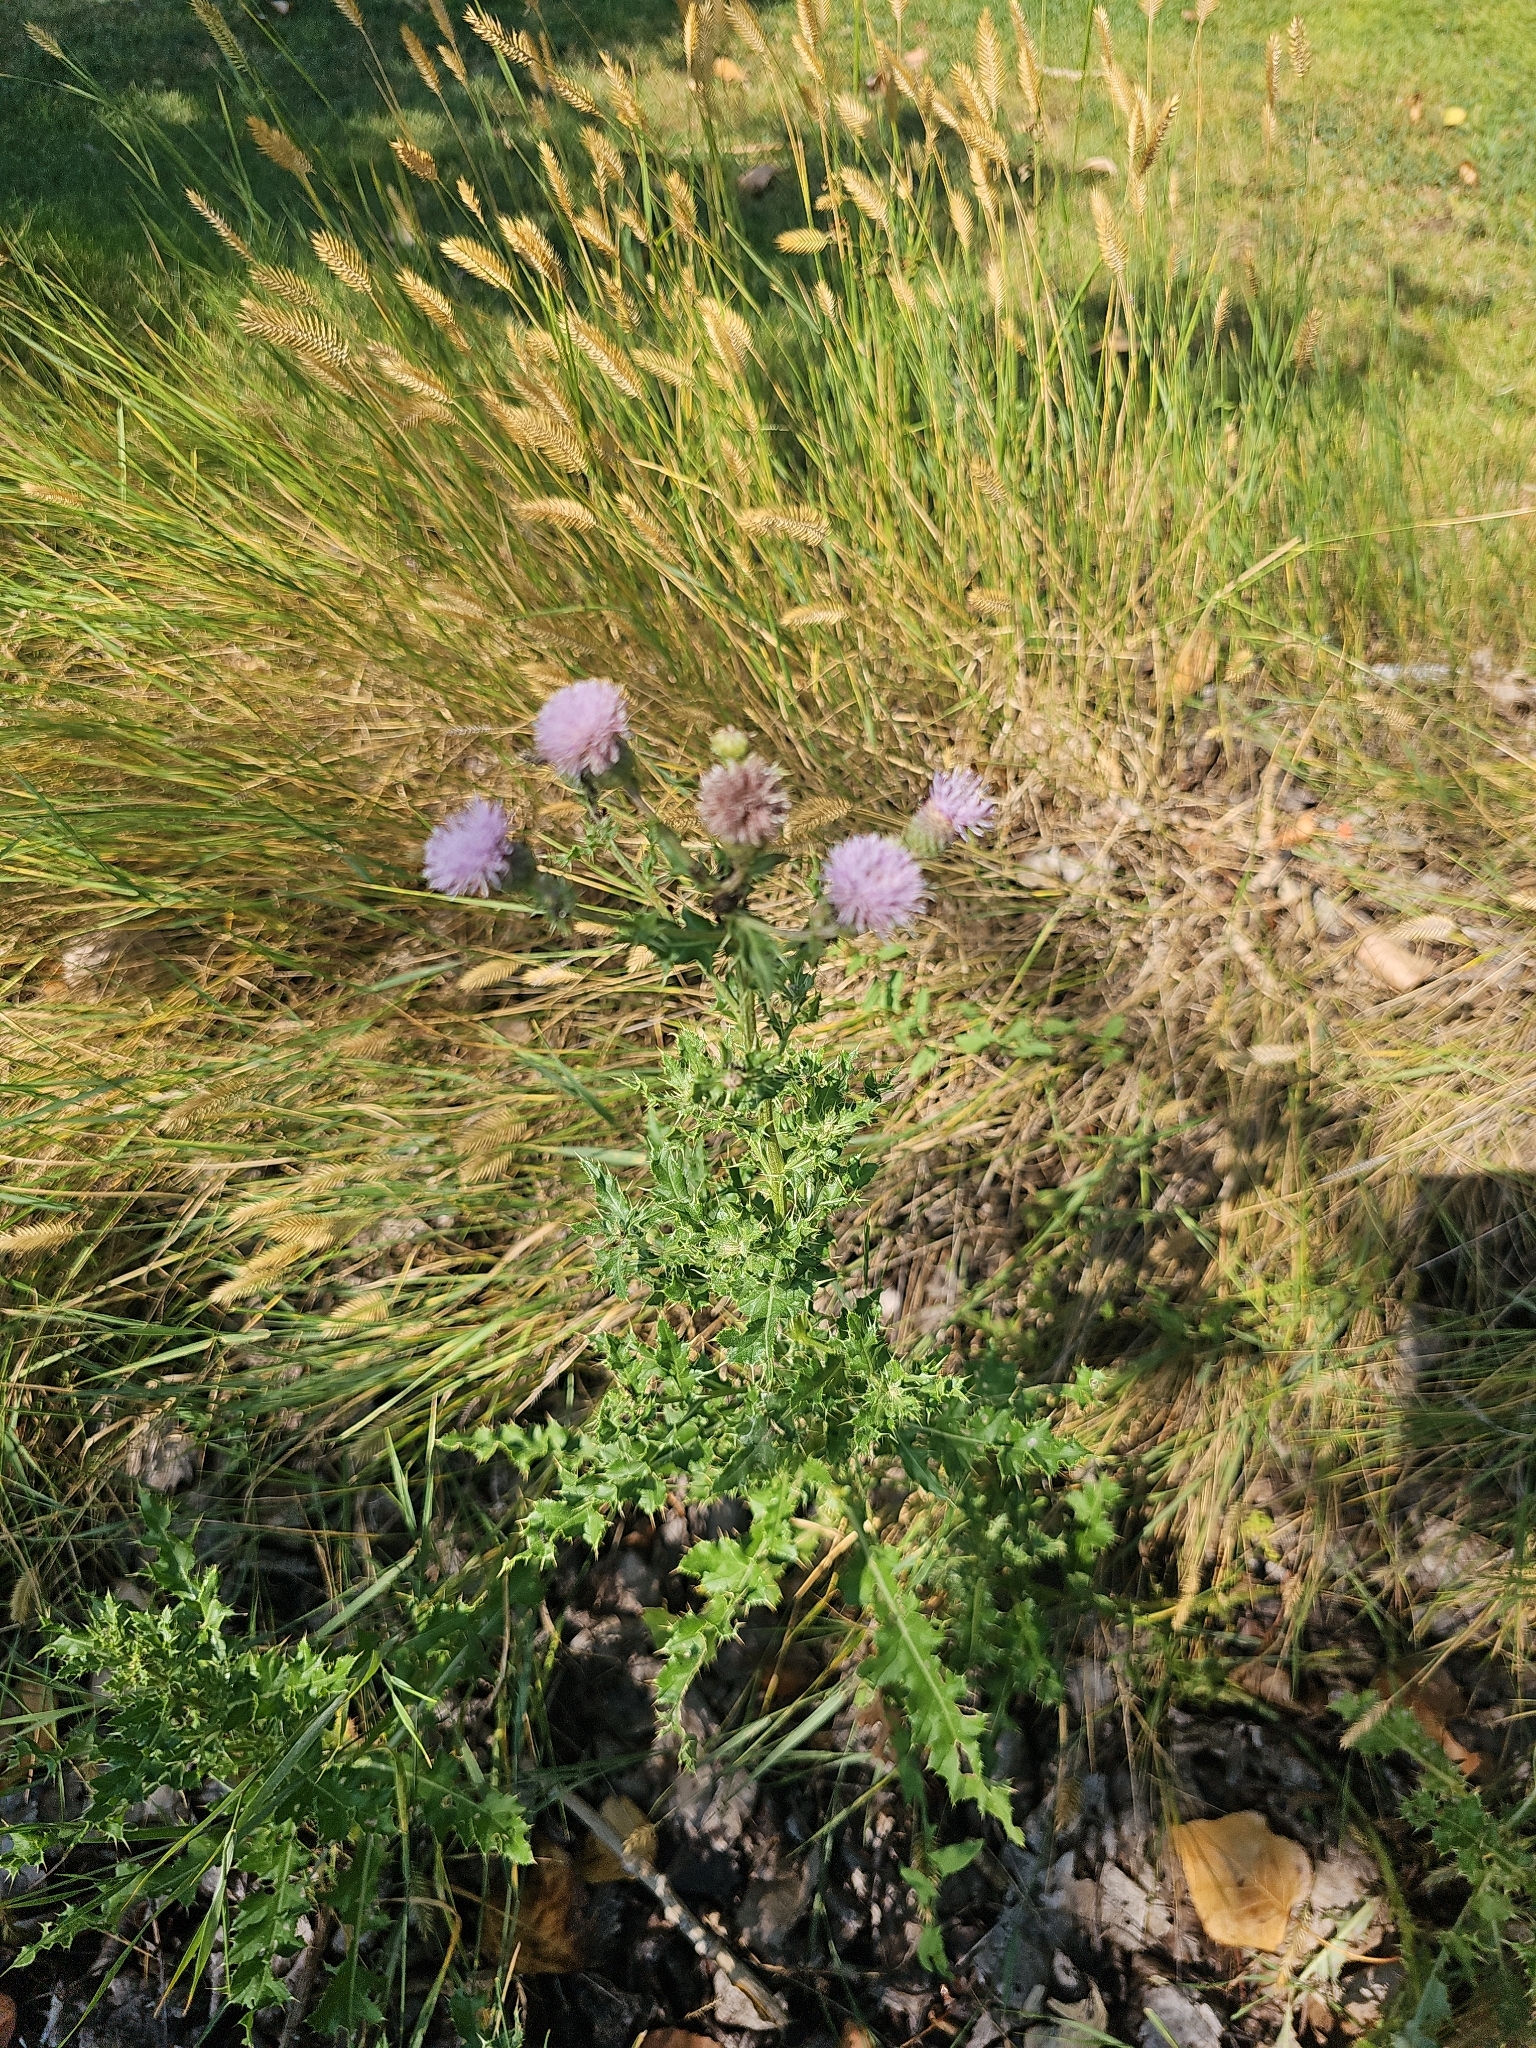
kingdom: Plantae
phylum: Tracheophyta
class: Magnoliopsida
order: Asterales
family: Asteraceae
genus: Cirsium
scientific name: Cirsium arvense
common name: Creeping thistle
